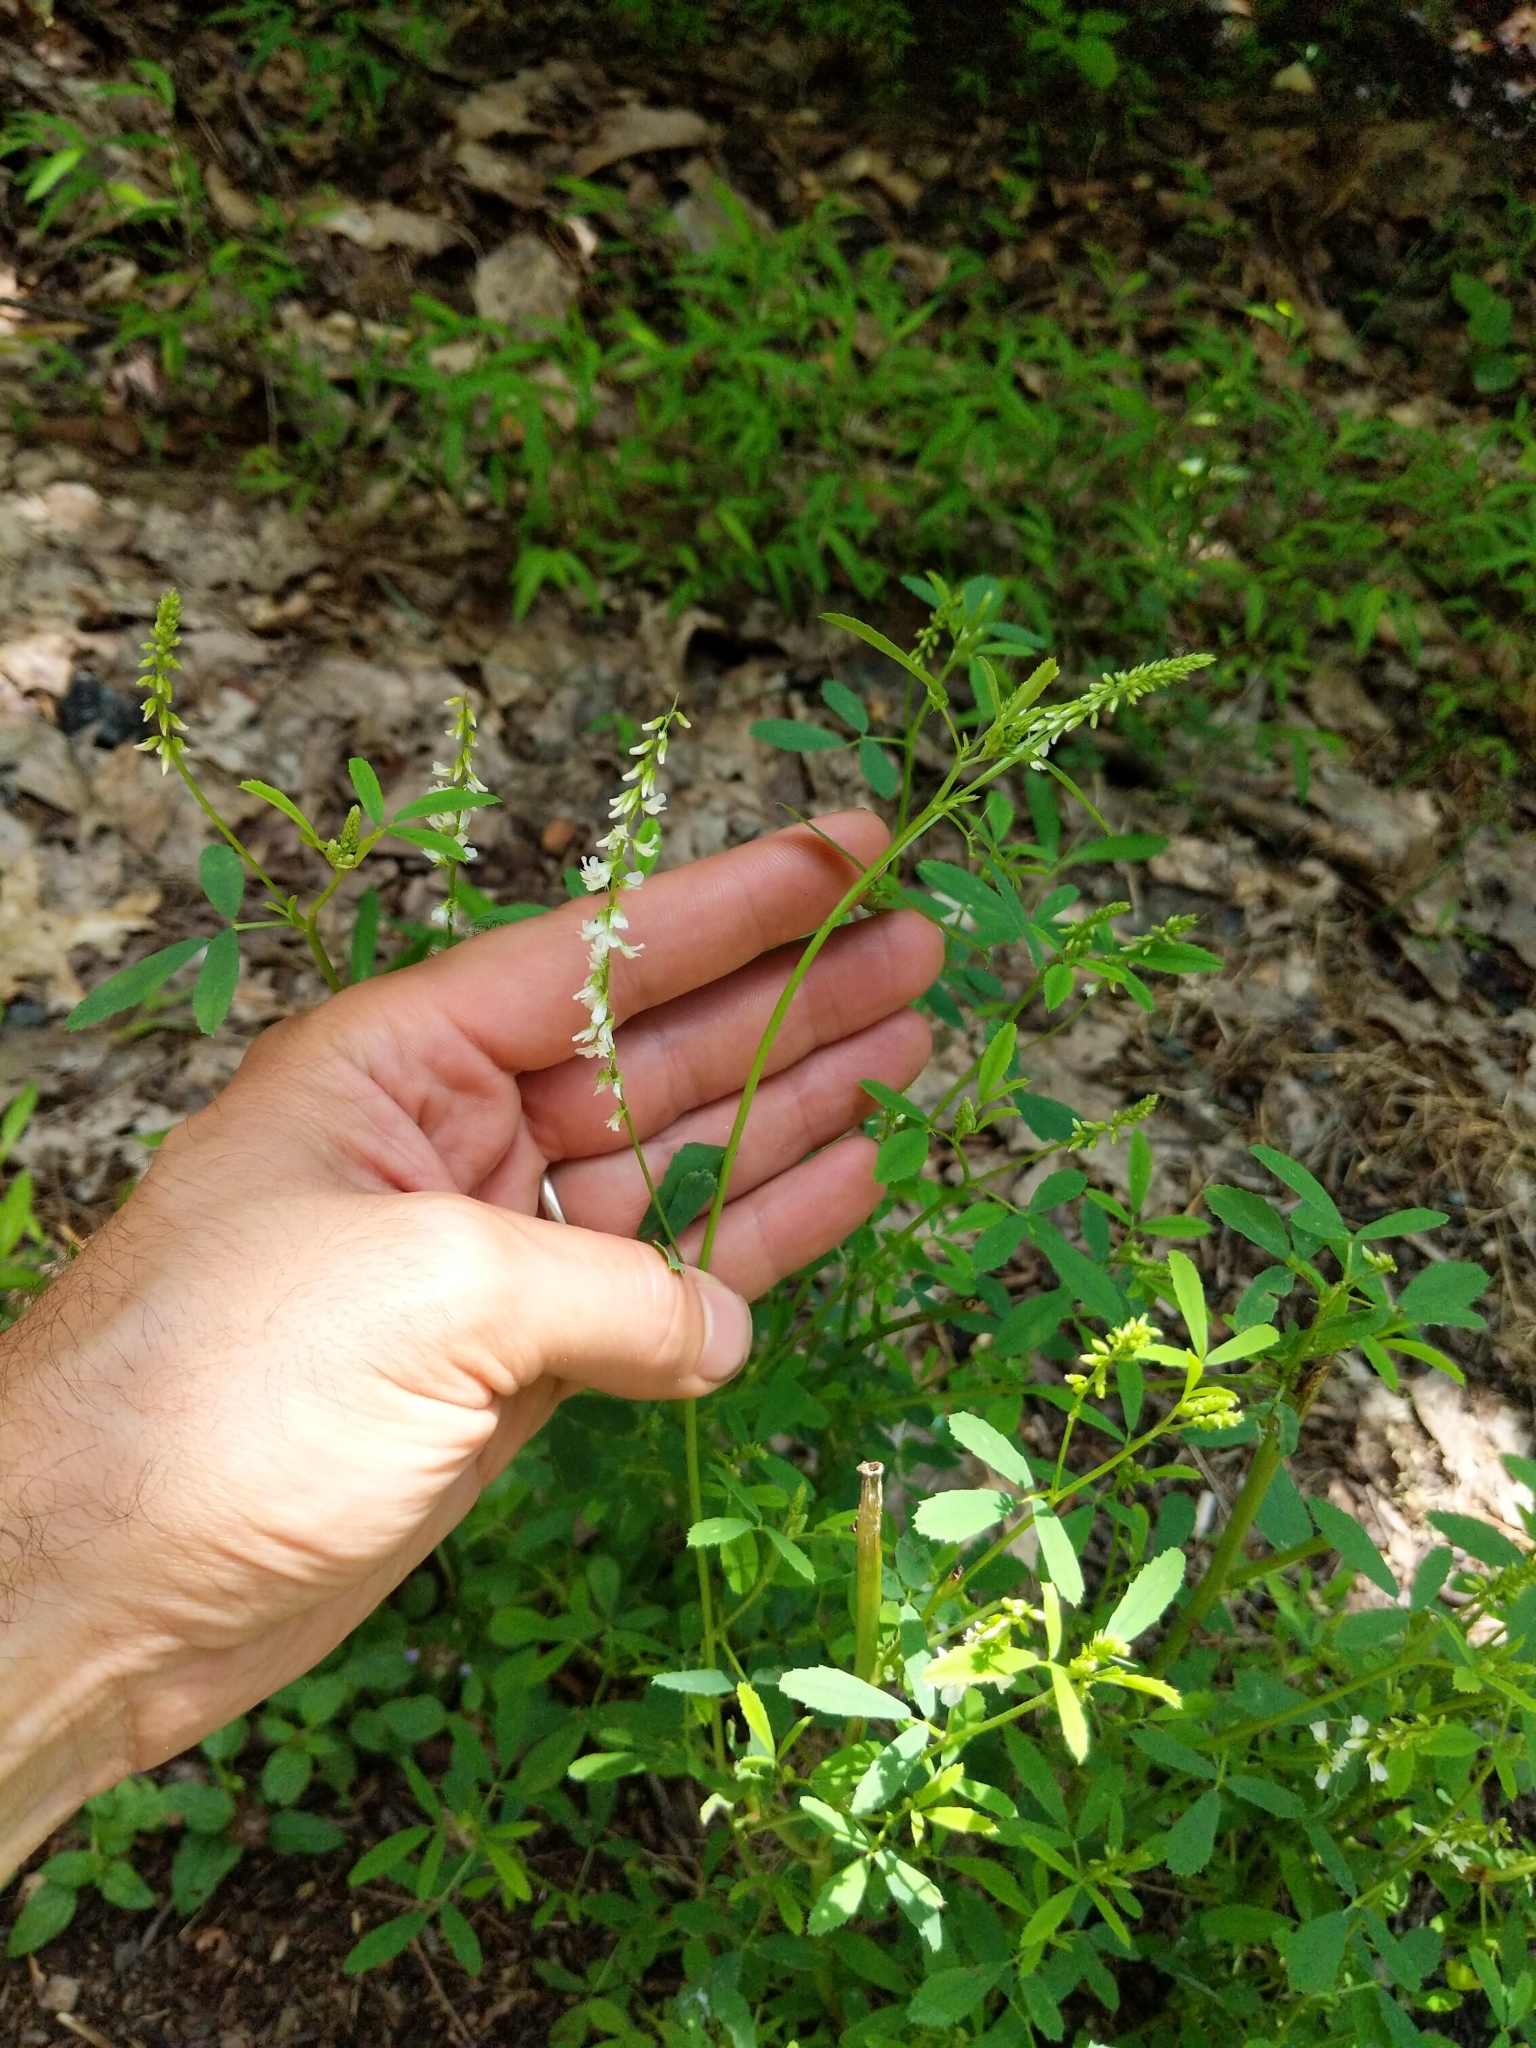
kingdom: Plantae
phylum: Tracheophyta
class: Magnoliopsida
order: Fabales
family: Fabaceae
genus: Melilotus
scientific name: Melilotus albus
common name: White melilot
